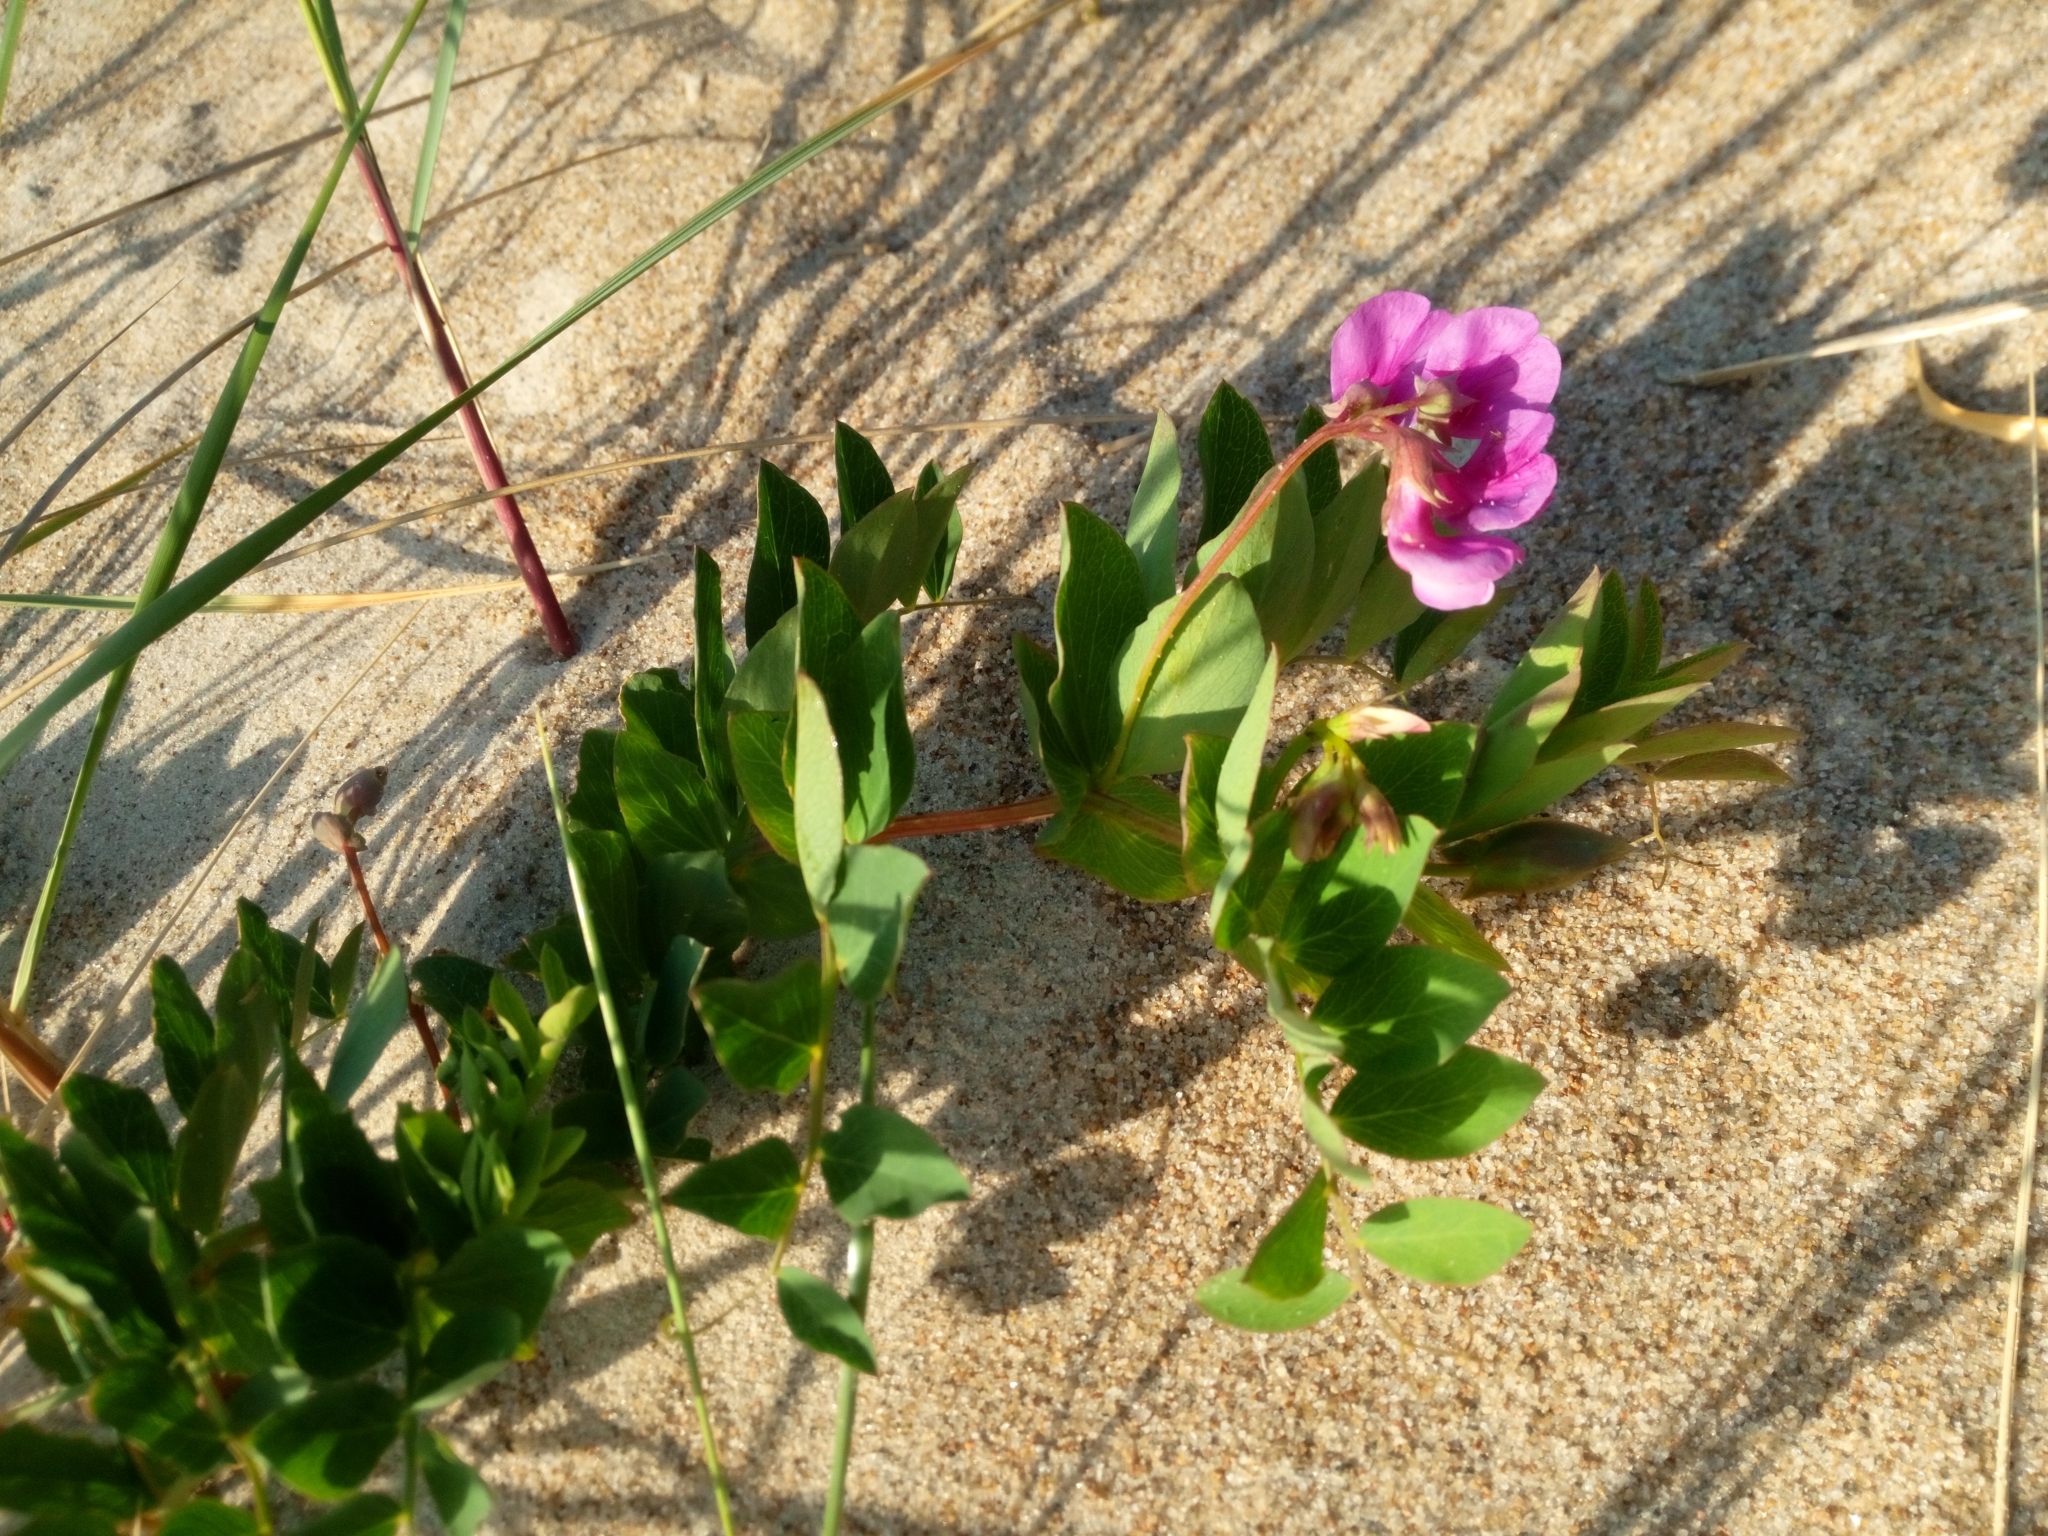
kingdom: Plantae
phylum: Tracheophyta
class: Magnoliopsida
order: Fabales
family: Fabaceae
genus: Lathyrus
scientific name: Lathyrus japonicus
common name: Sea pea
